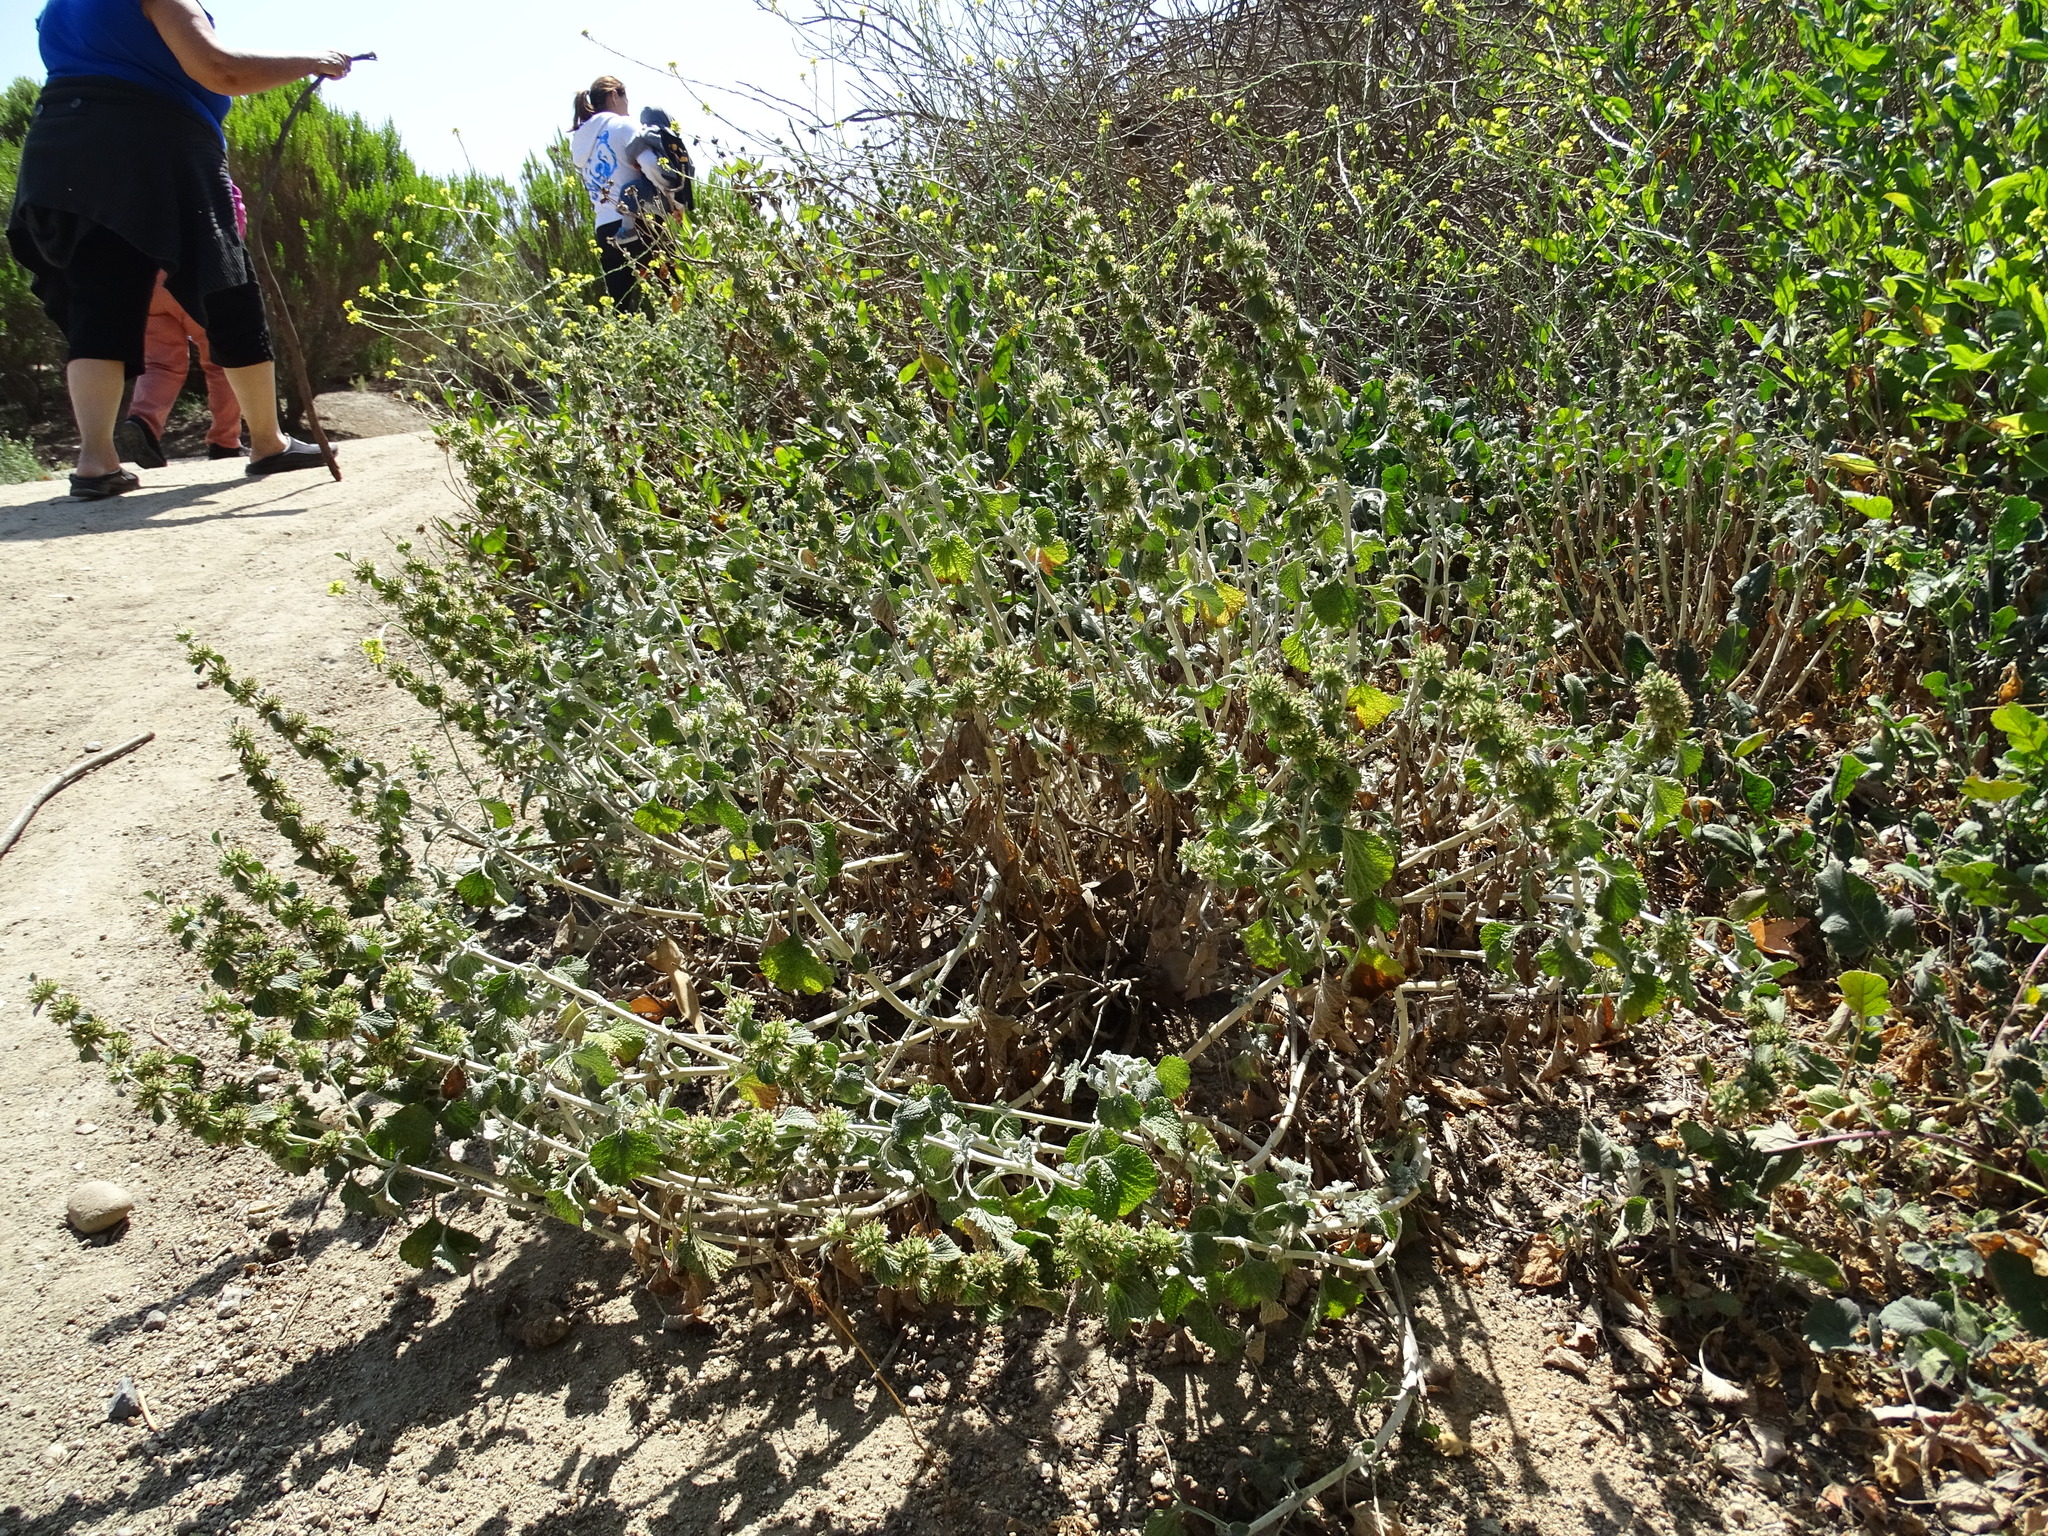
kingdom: Plantae
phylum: Tracheophyta
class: Magnoliopsida
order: Lamiales
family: Lamiaceae
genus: Marrubium
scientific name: Marrubium vulgare
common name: Horehound
